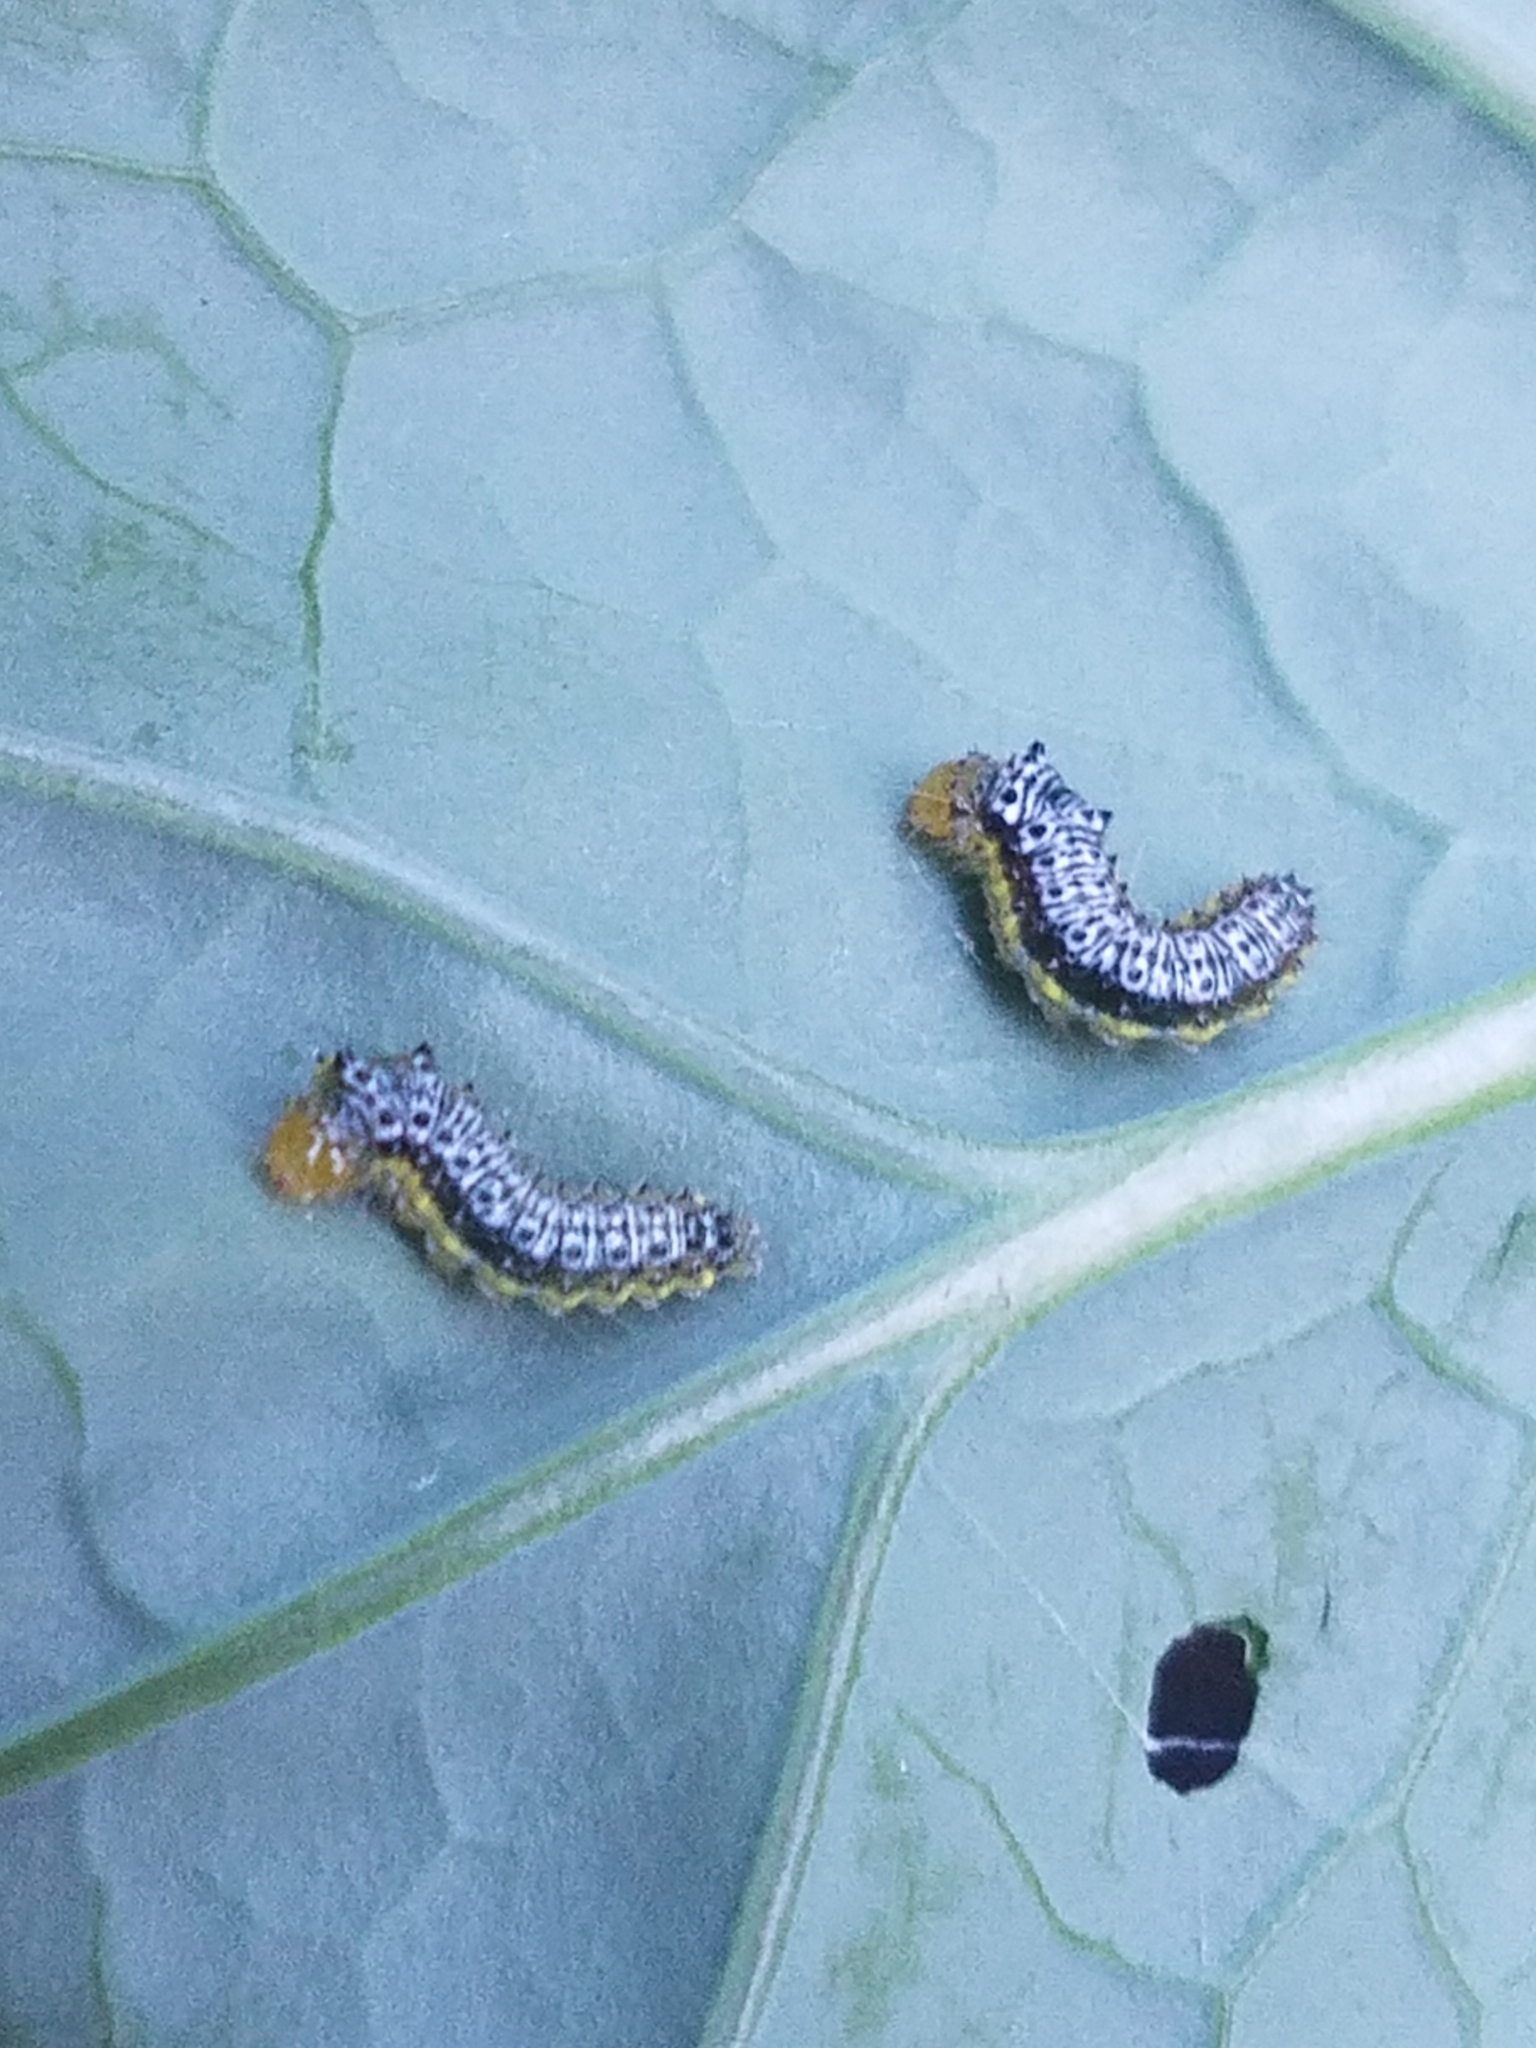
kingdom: Animalia
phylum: Arthropoda
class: Insecta
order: Lepidoptera
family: Crambidae
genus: Evergestis
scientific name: Evergestis rimosalis
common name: Cross-striped cabbageworm moth
